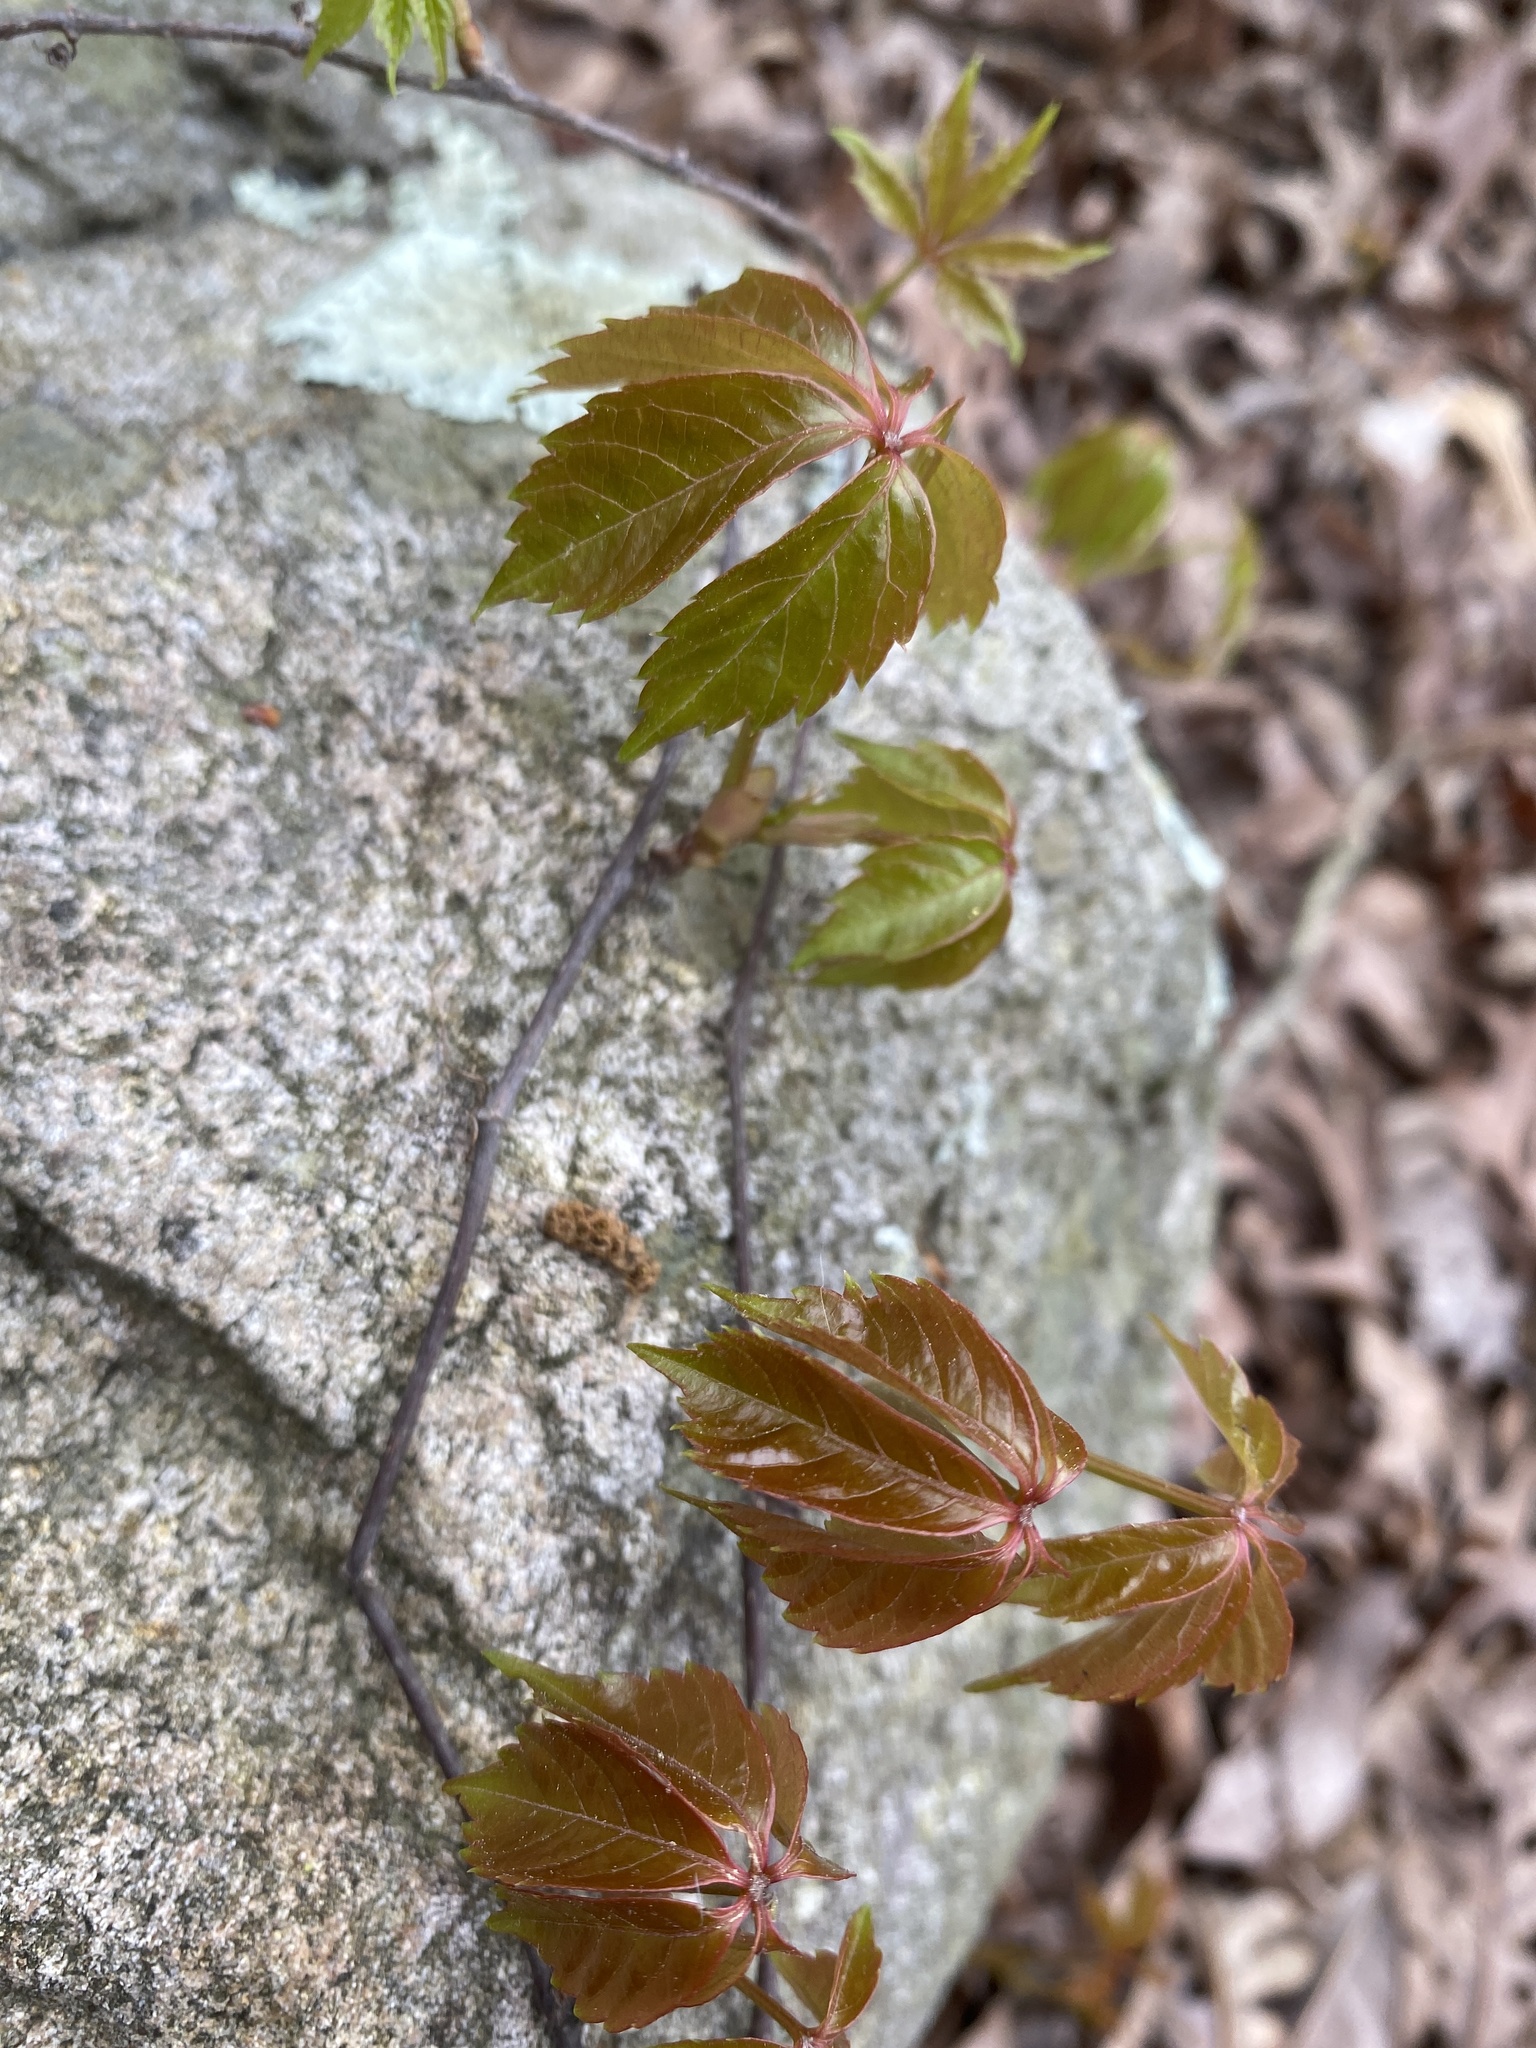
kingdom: Plantae
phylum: Tracheophyta
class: Magnoliopsida
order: Vitales
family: Vitaceae
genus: Parthenocissus
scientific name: Parthenocissus quinquefolia
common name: Virginia-creeper
